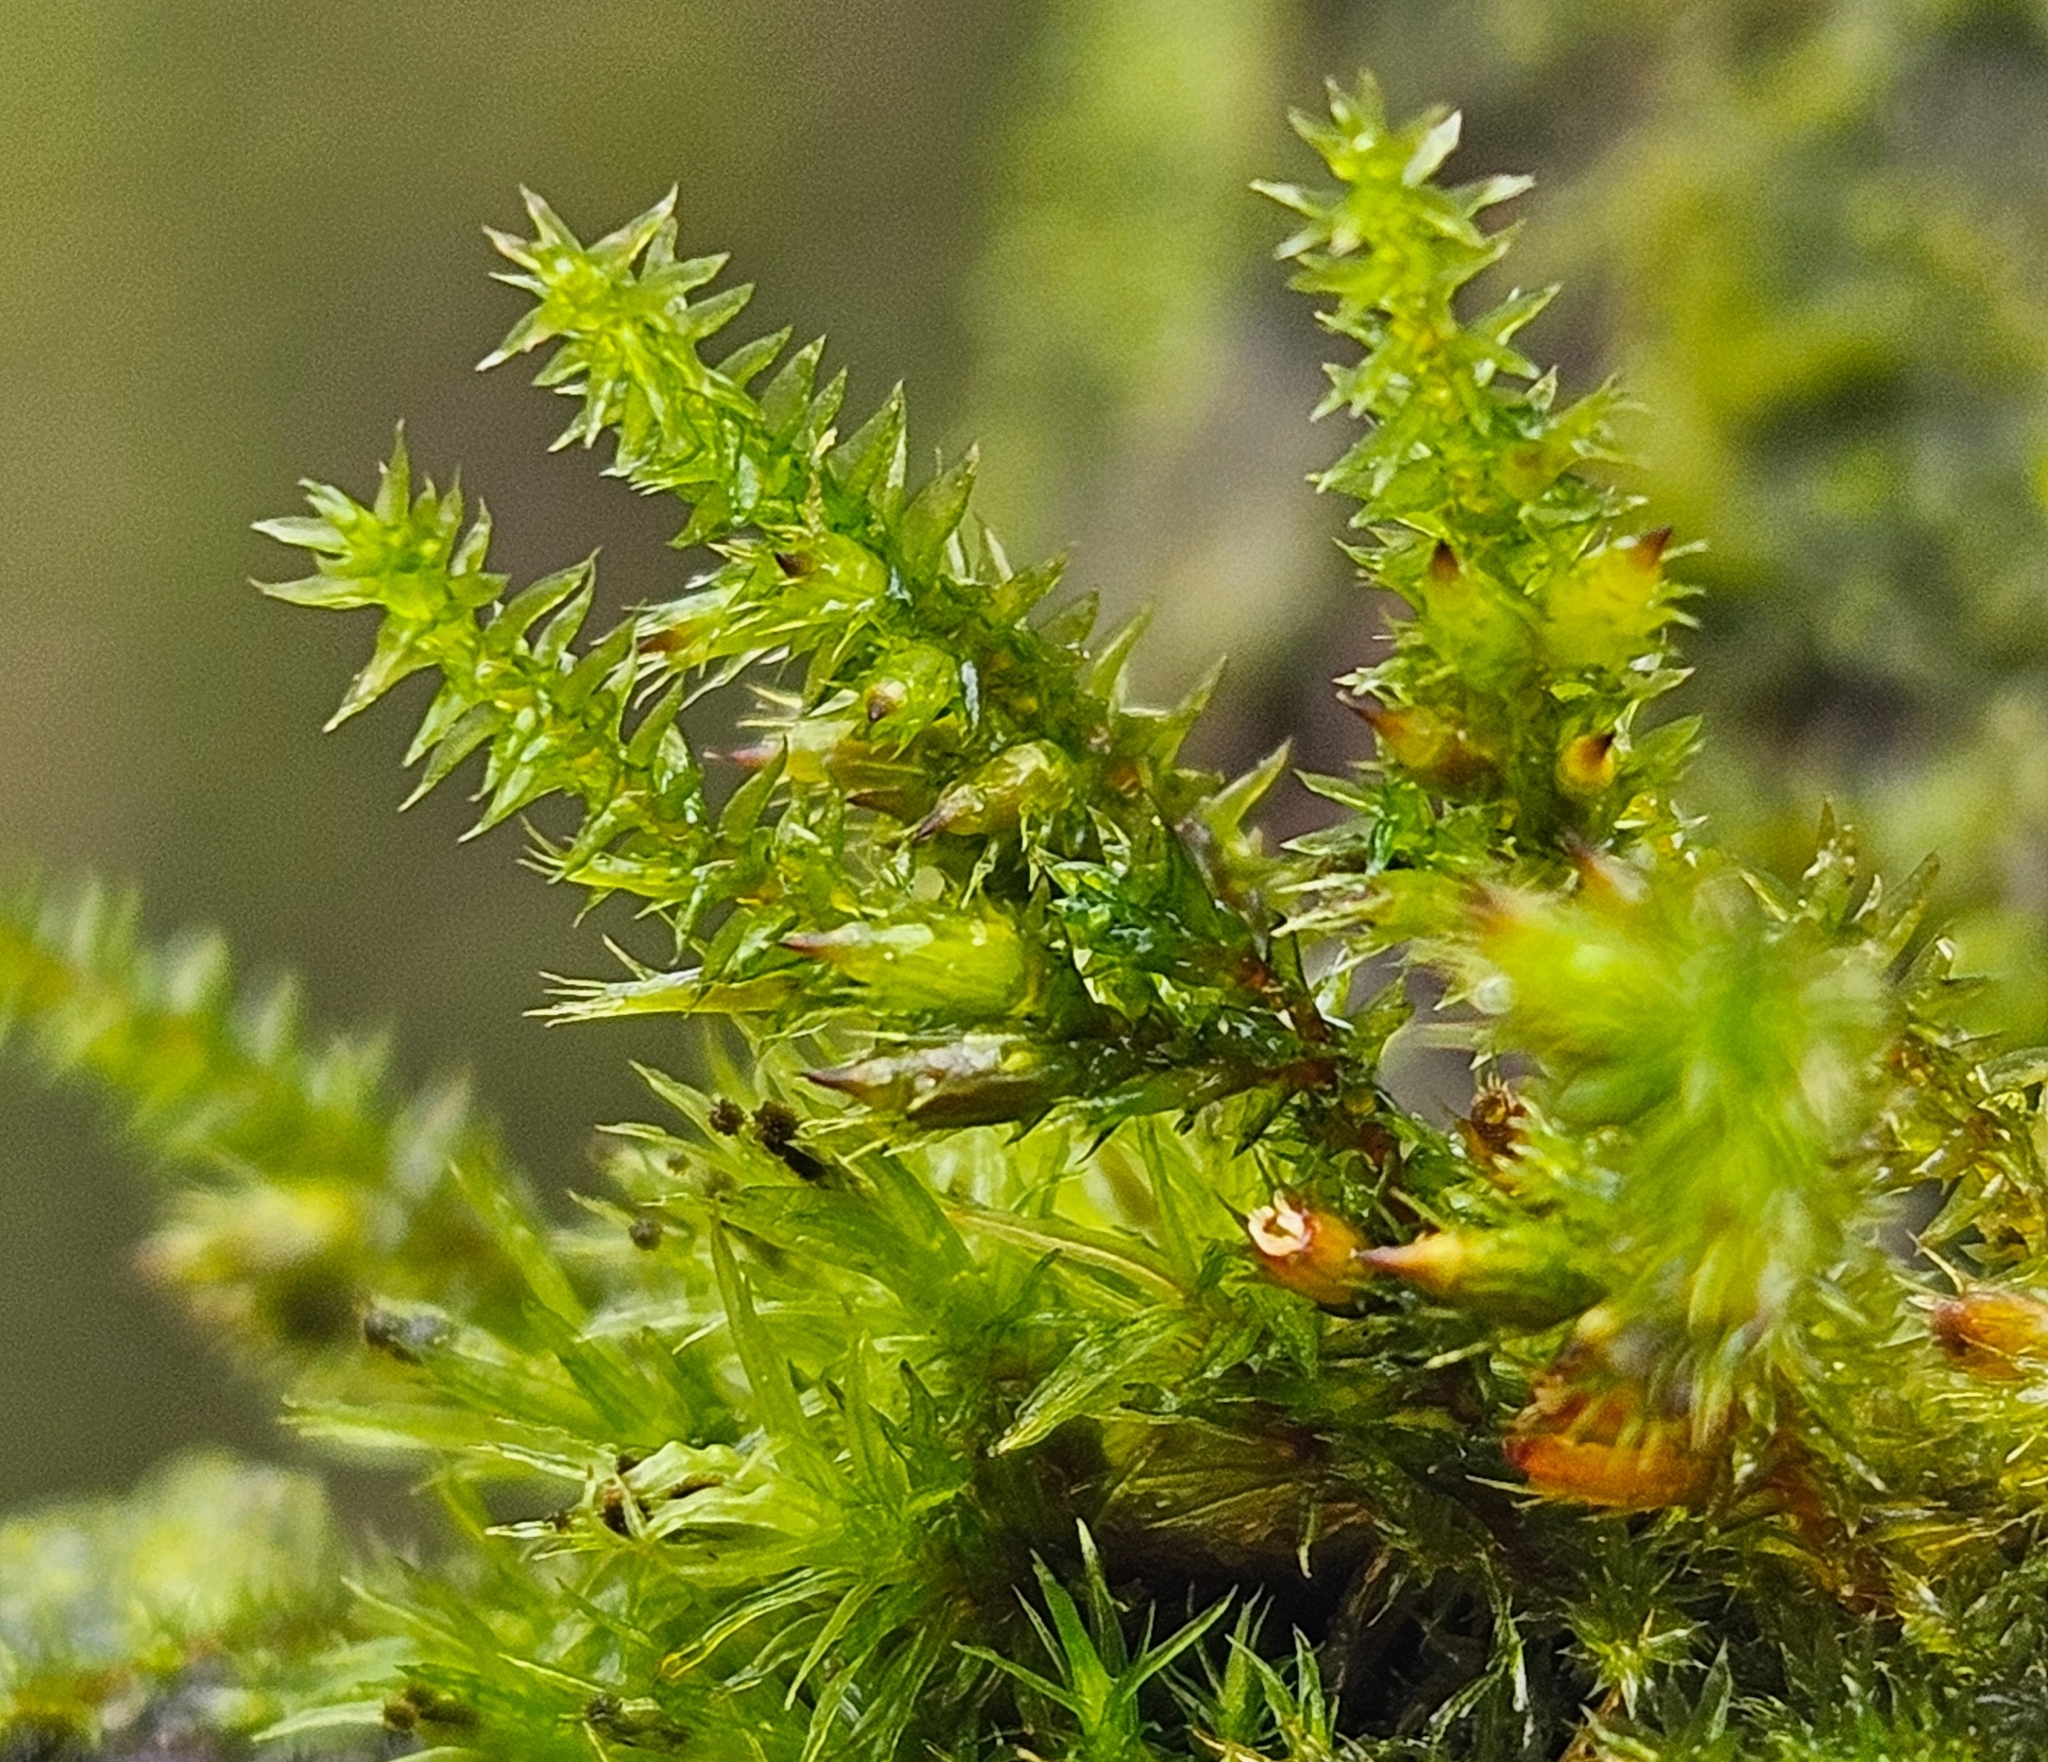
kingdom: Plantae
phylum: Bryophyta
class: Bryopsida
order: Hypnales
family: Cryphaeaceae
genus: Cryphaea
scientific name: Cryphaea heteromalla
